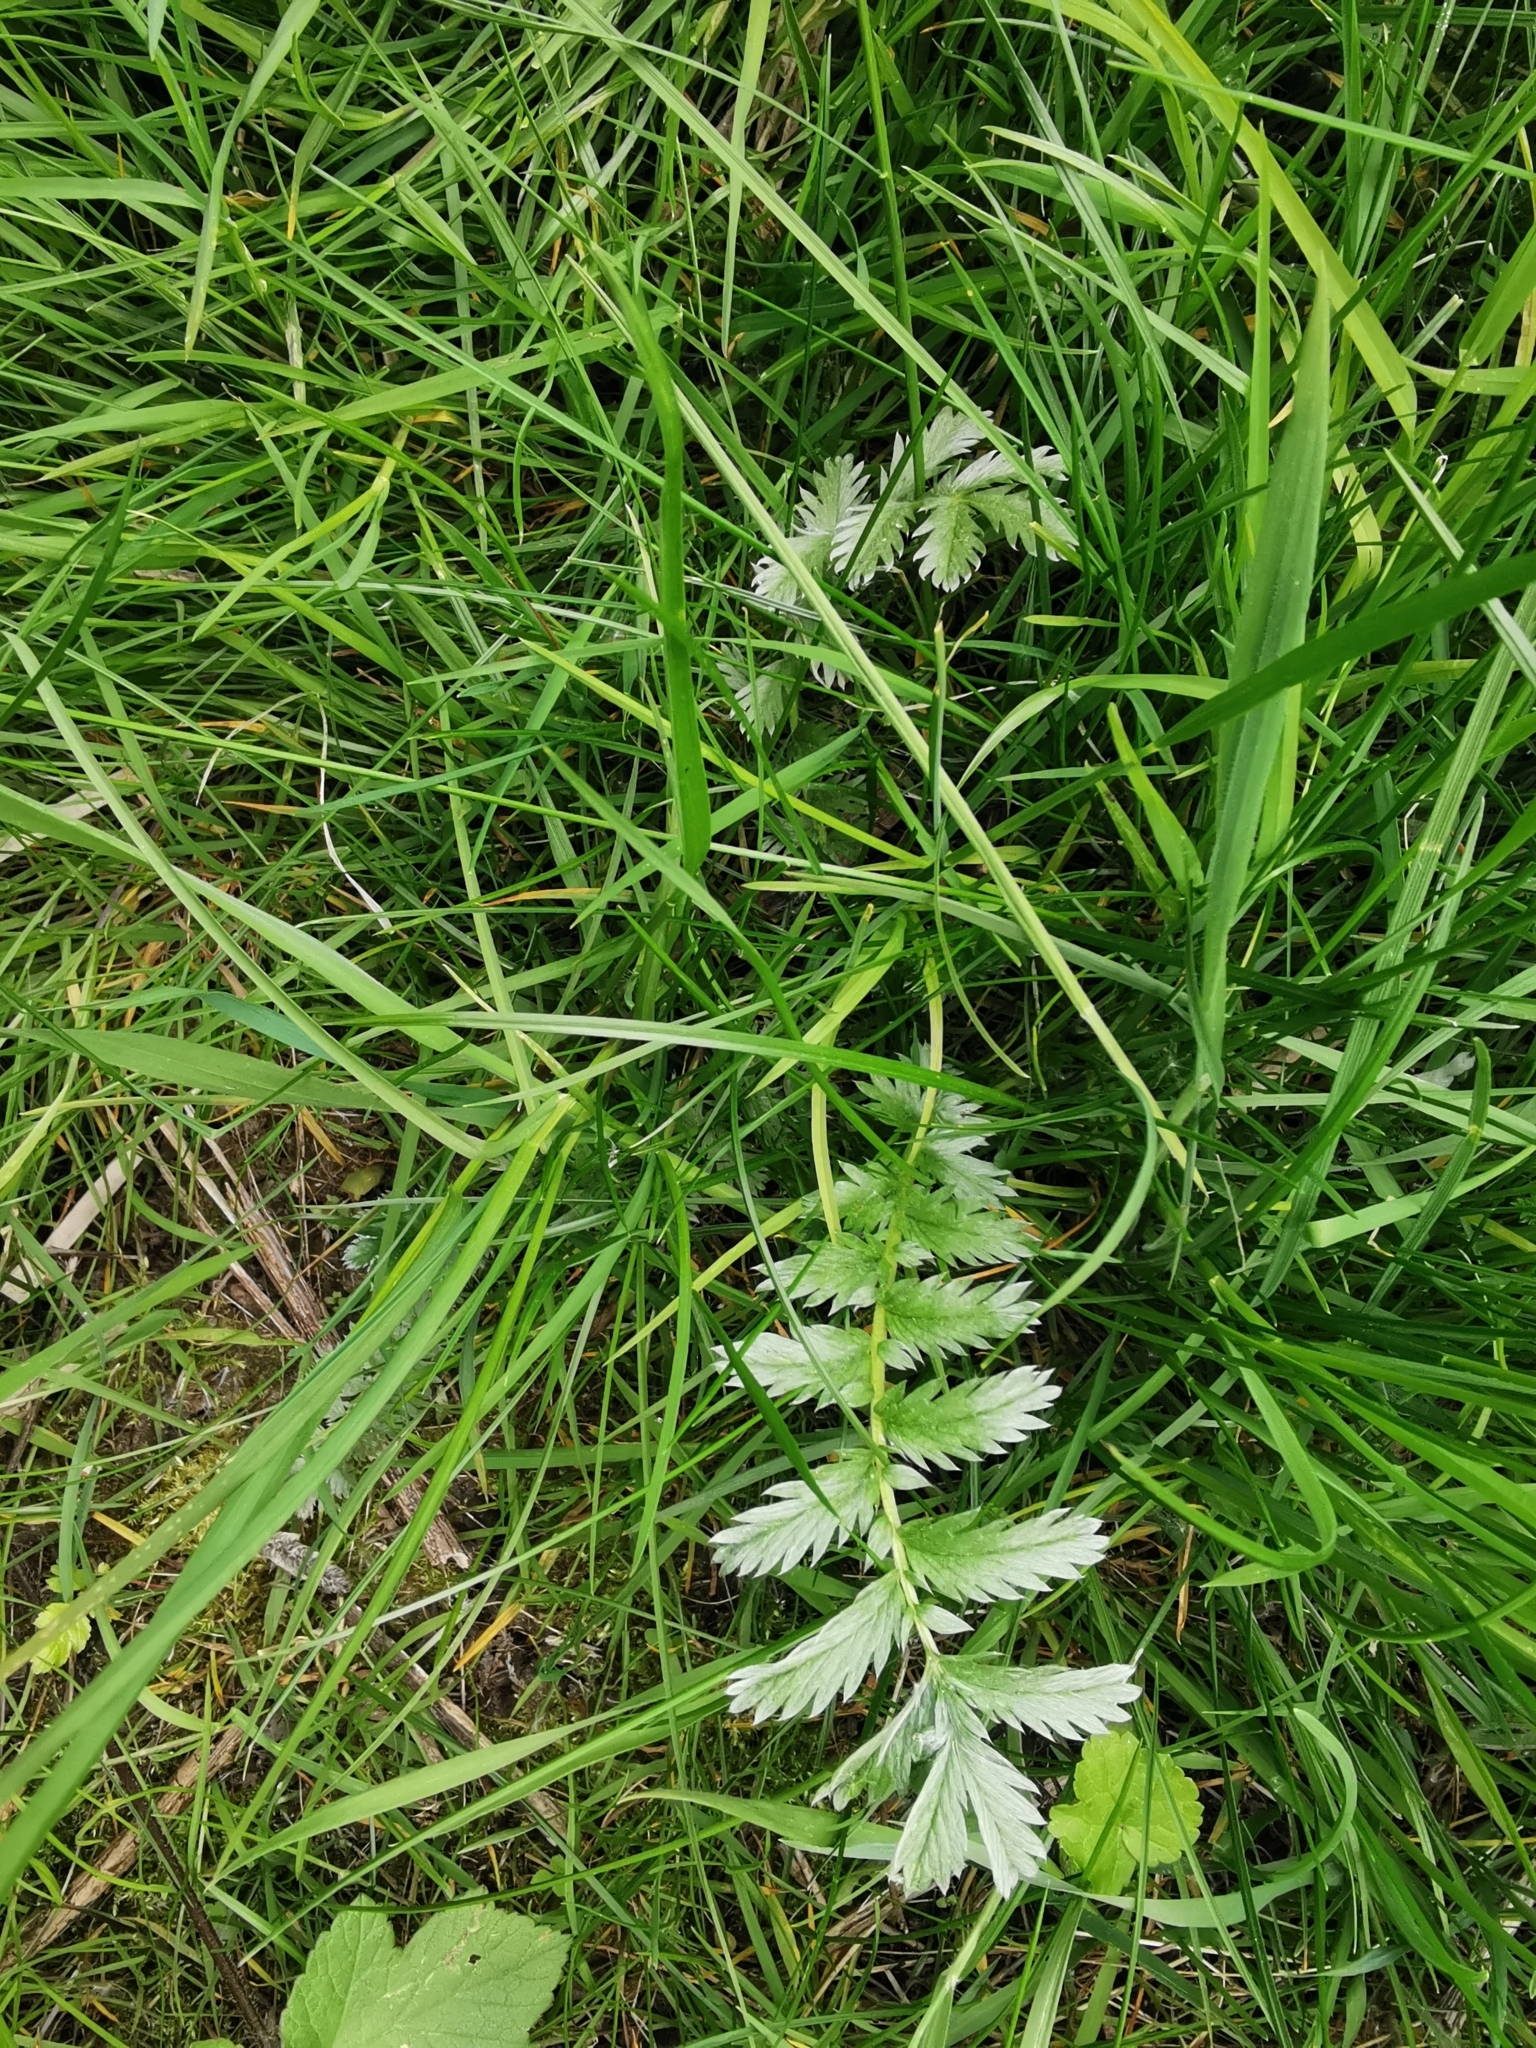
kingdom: Plantae
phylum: Tracheophyta
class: Magnoliopsida
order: Rosales
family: Rosaceae
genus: Argentina
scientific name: Argentina anserina
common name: Common silverweed
